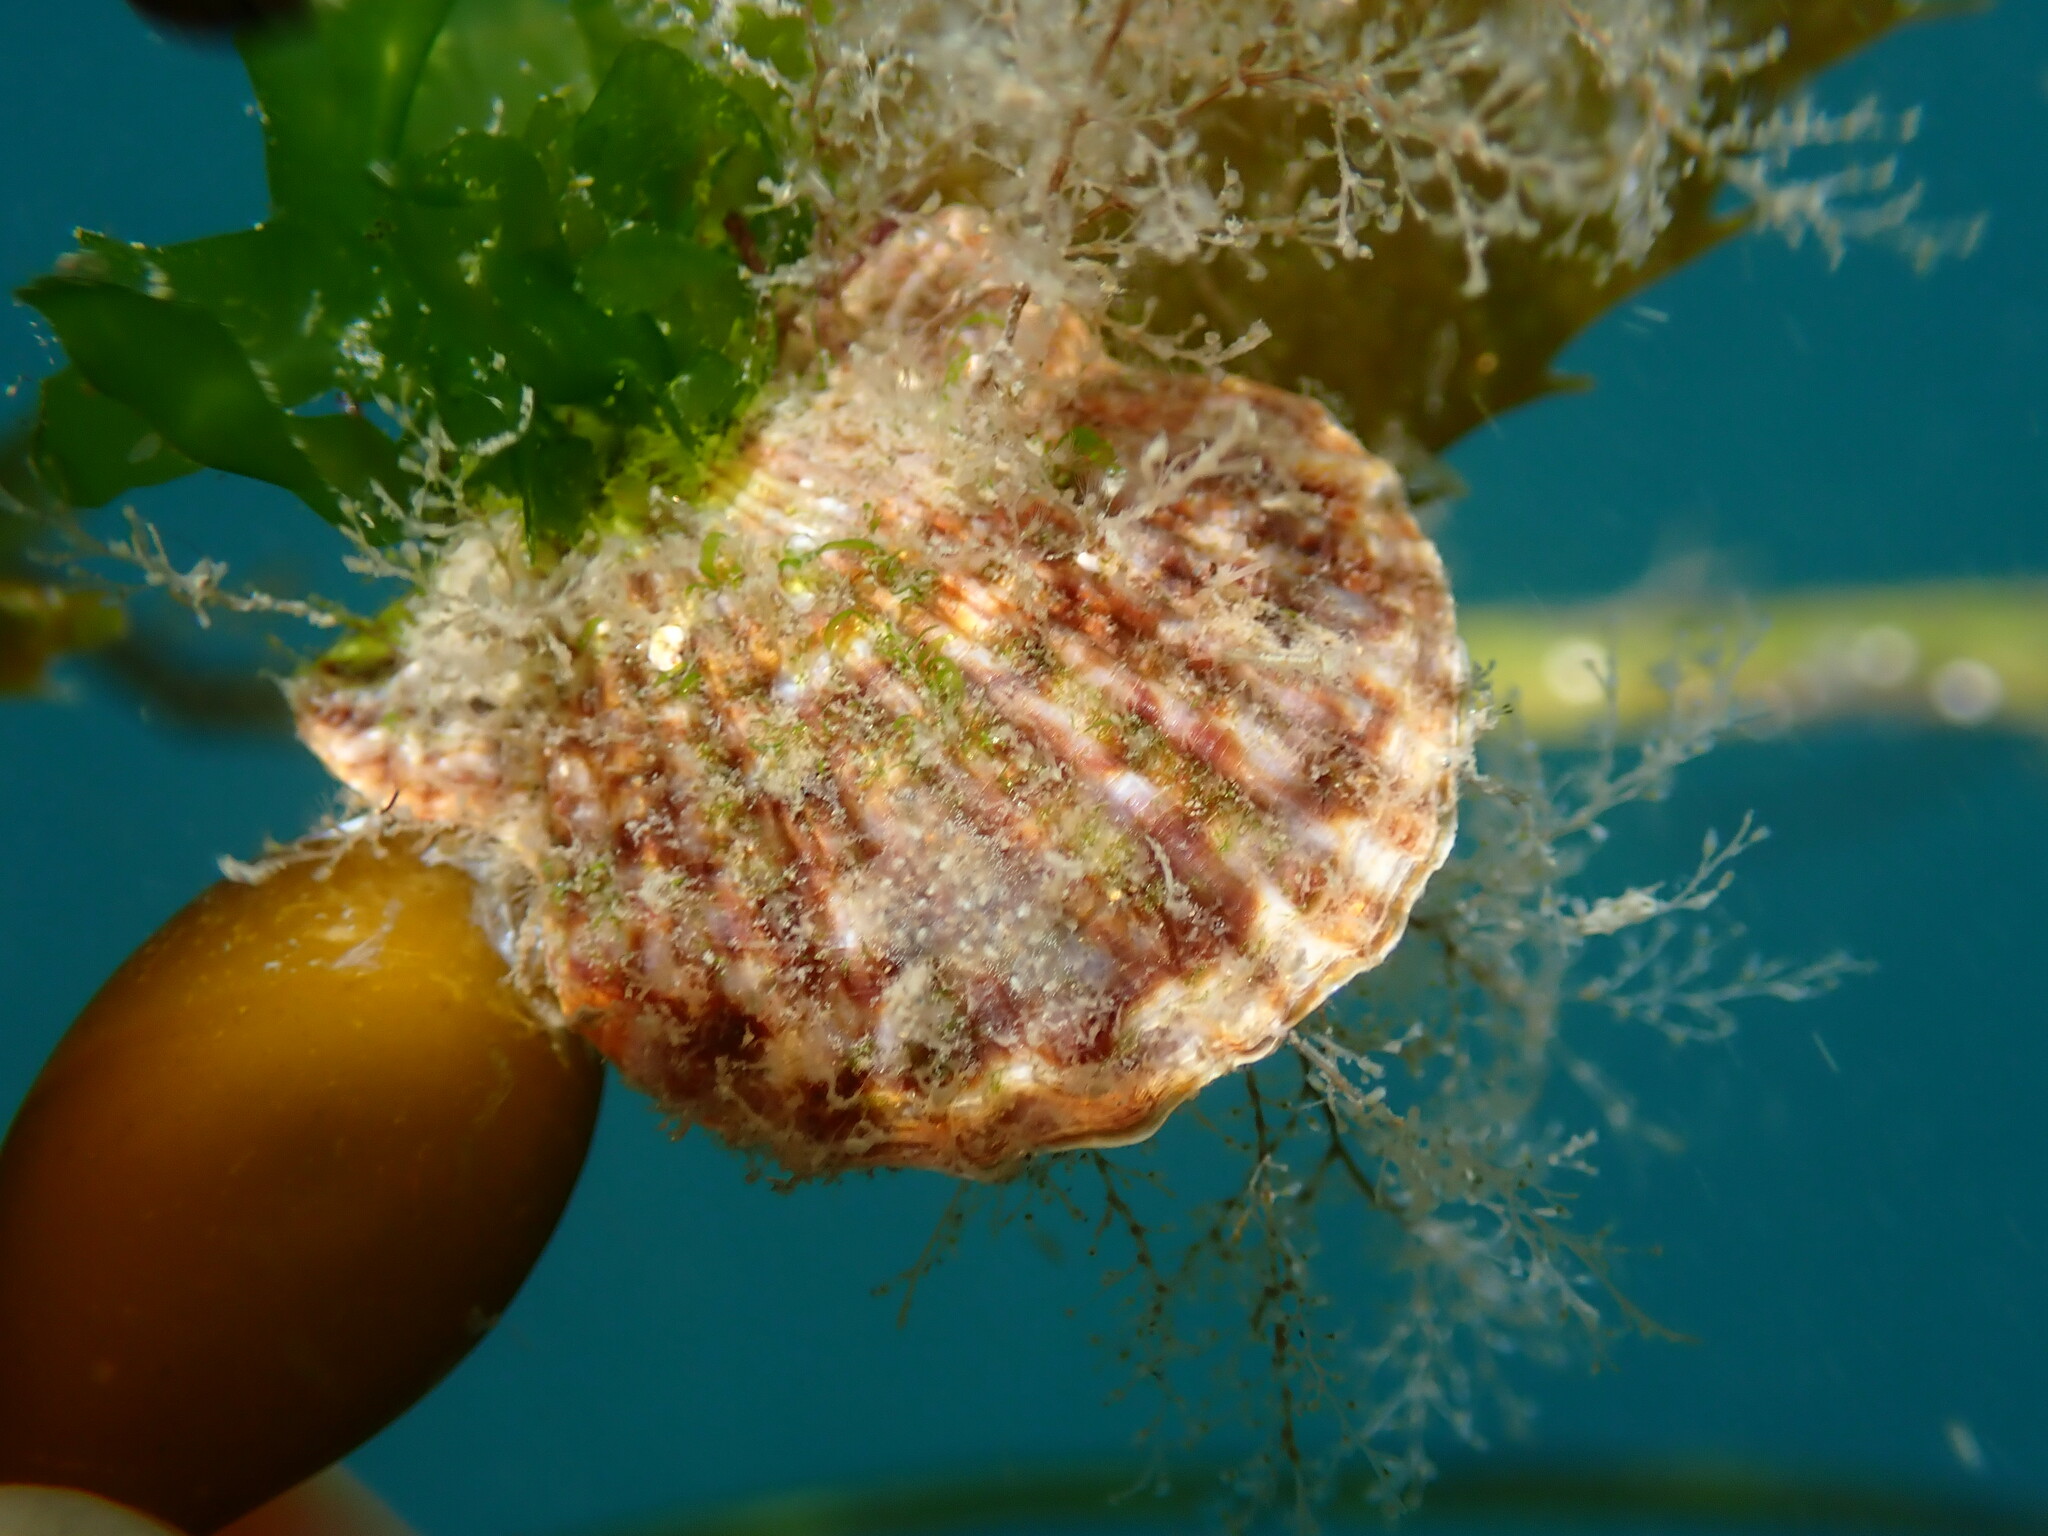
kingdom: Animalia
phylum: Mollusca
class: Bivalvia
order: Pectinida
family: Pectinidae
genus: Leptopecten
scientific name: Leptopecten latiauratus
